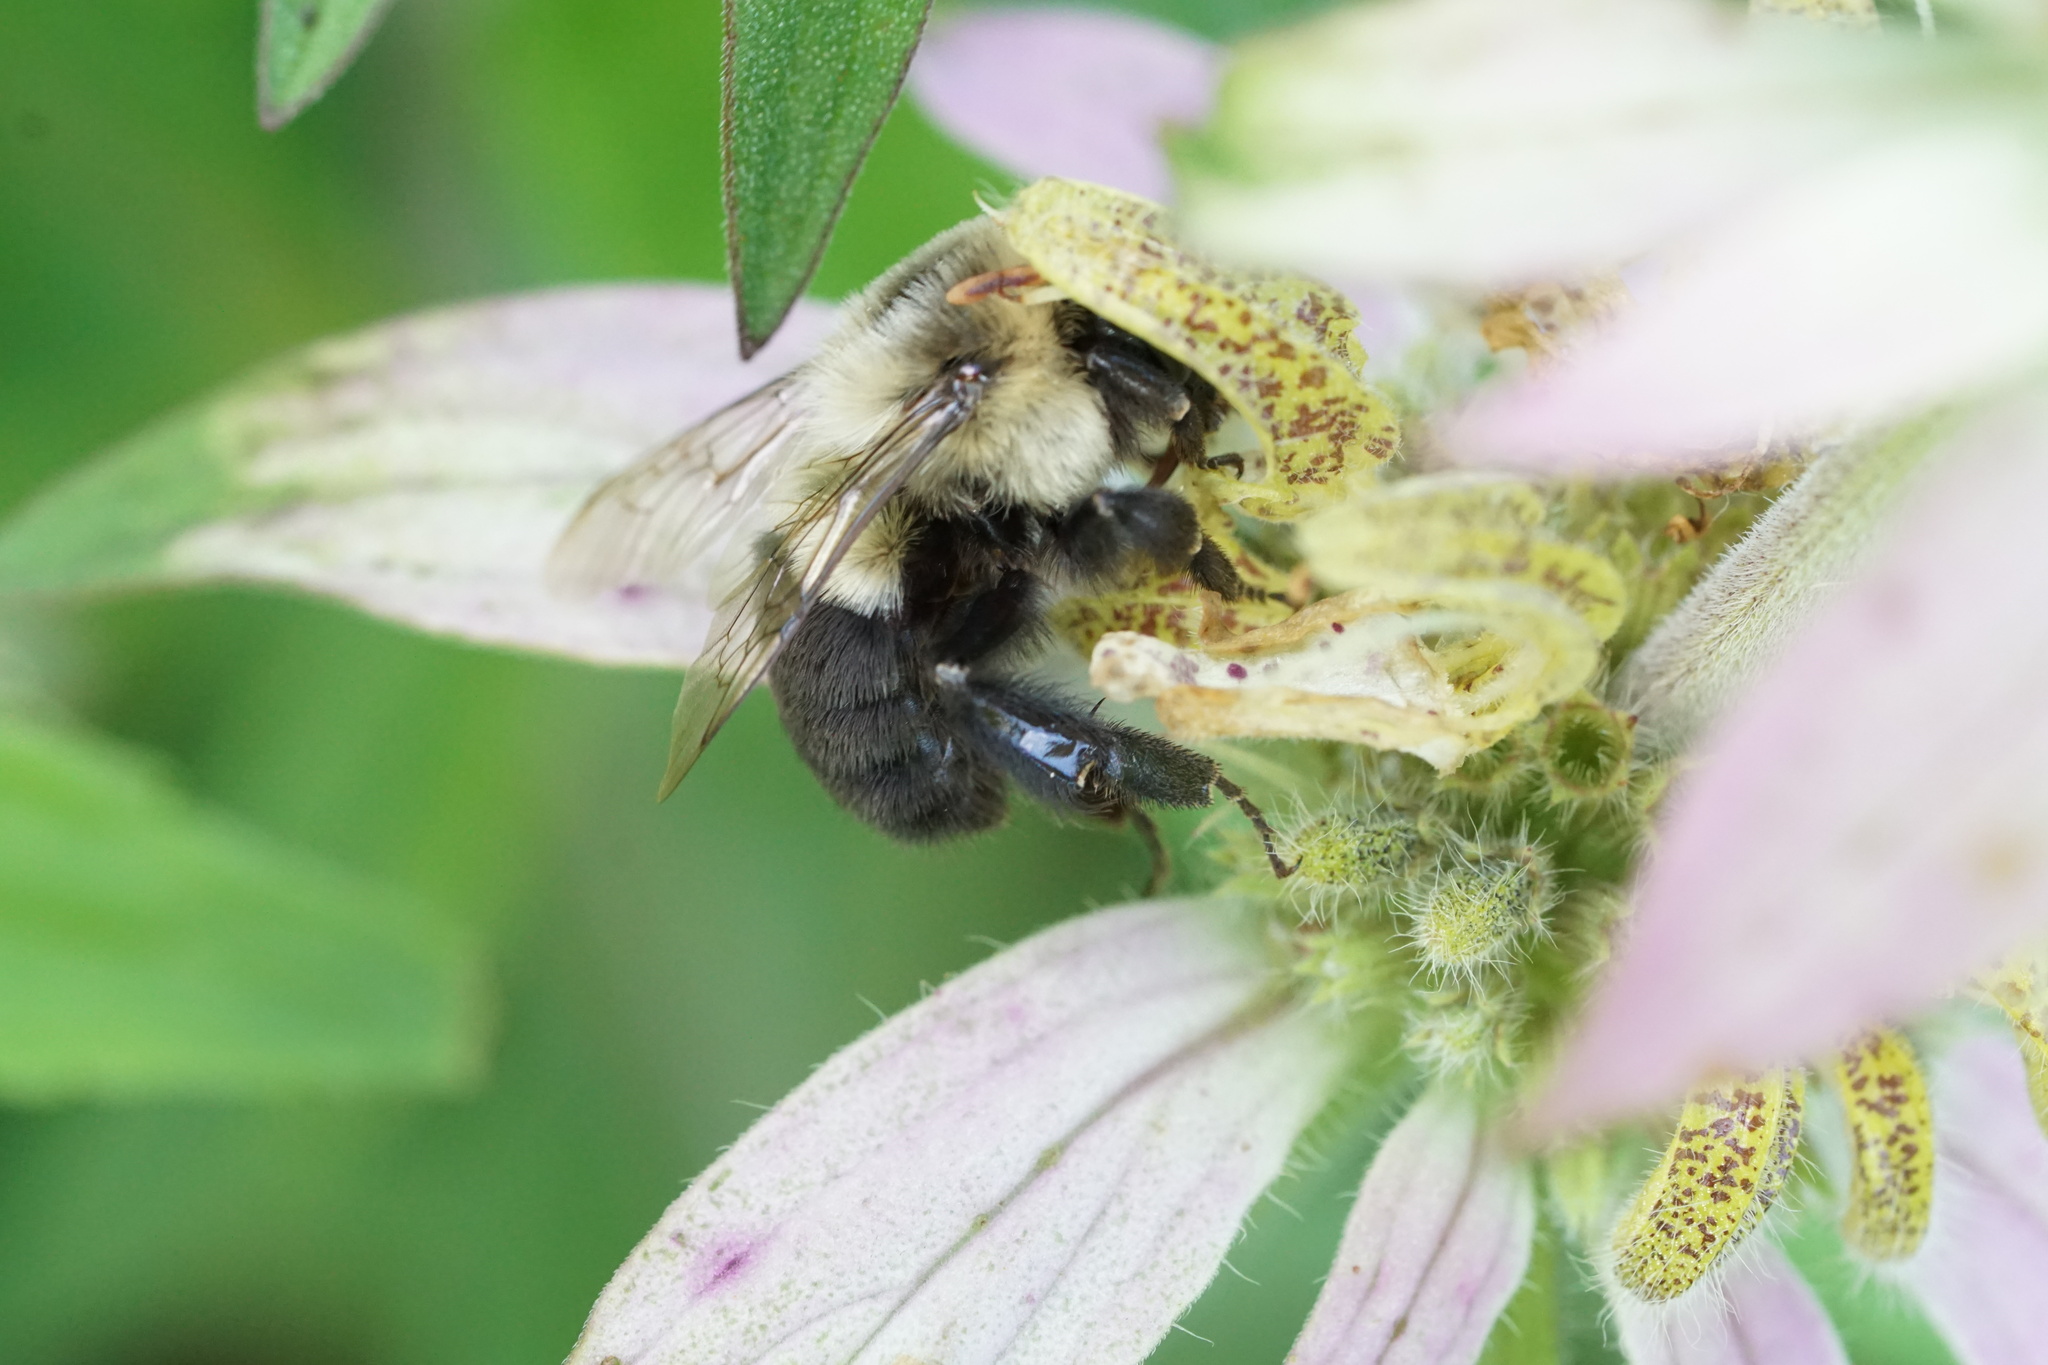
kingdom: Animalia
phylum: Arthropoda
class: Insecta
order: Hymenoptera
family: Apidae
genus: Bombus
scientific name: Bombus impatiens
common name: Common eastern bumble bee
